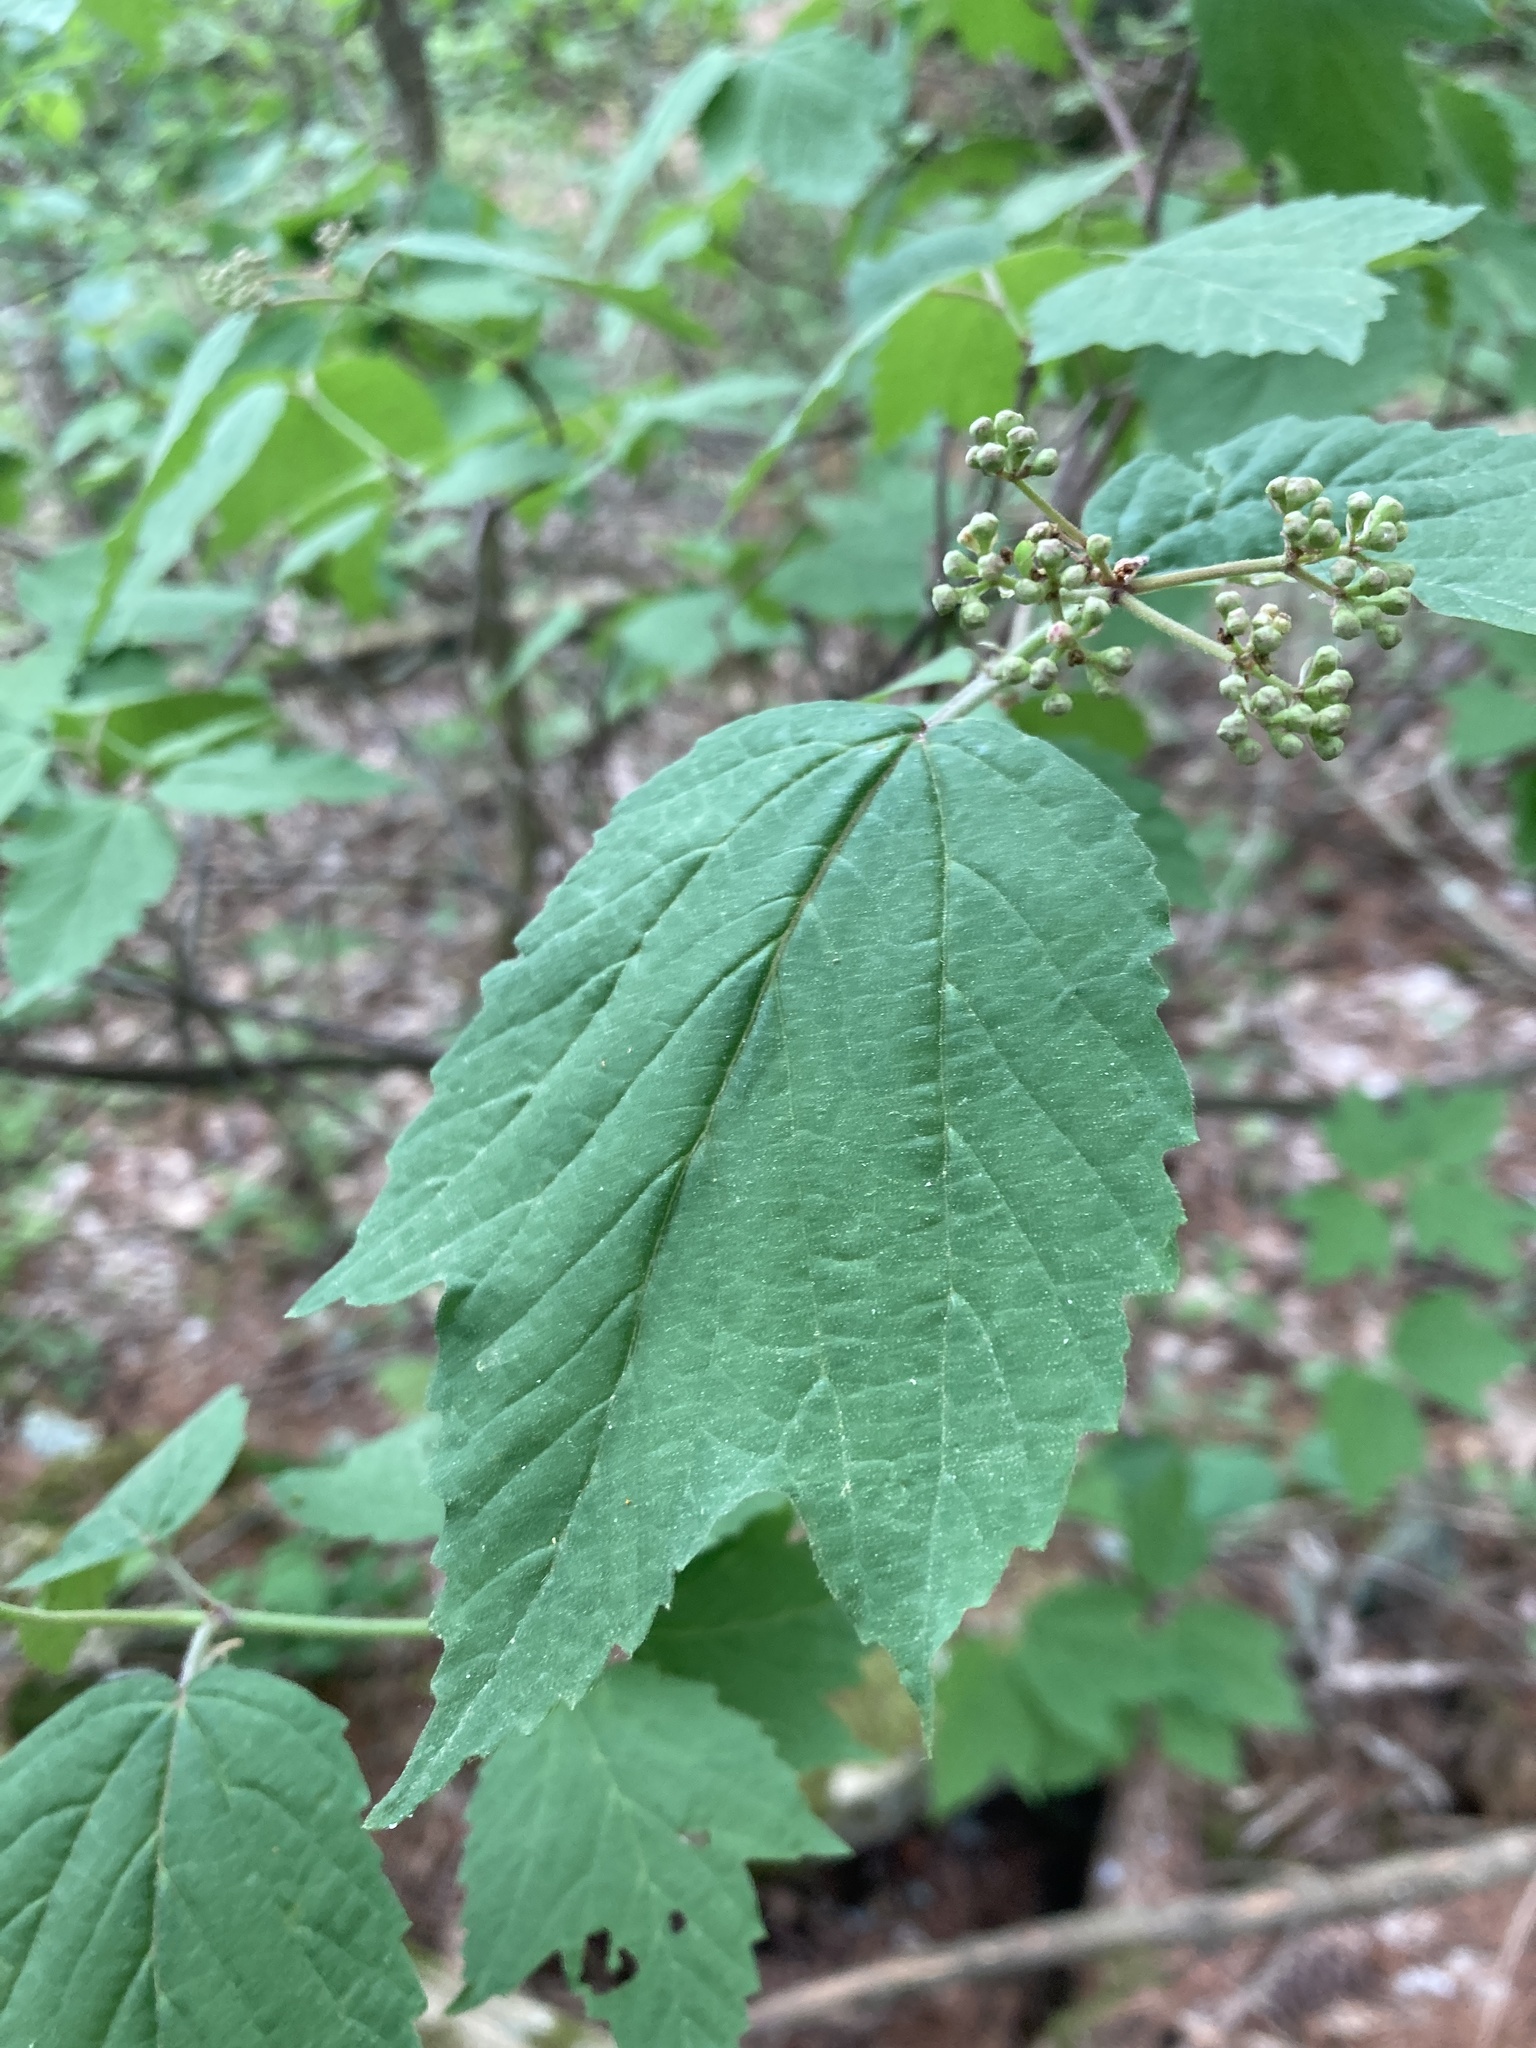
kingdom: Plantae
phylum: Tracheophyta
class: Magnoliopsida
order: Dipsacales
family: Viburnaceae
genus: Viburnum
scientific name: Viburnum acerifolium
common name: Dockmackie
